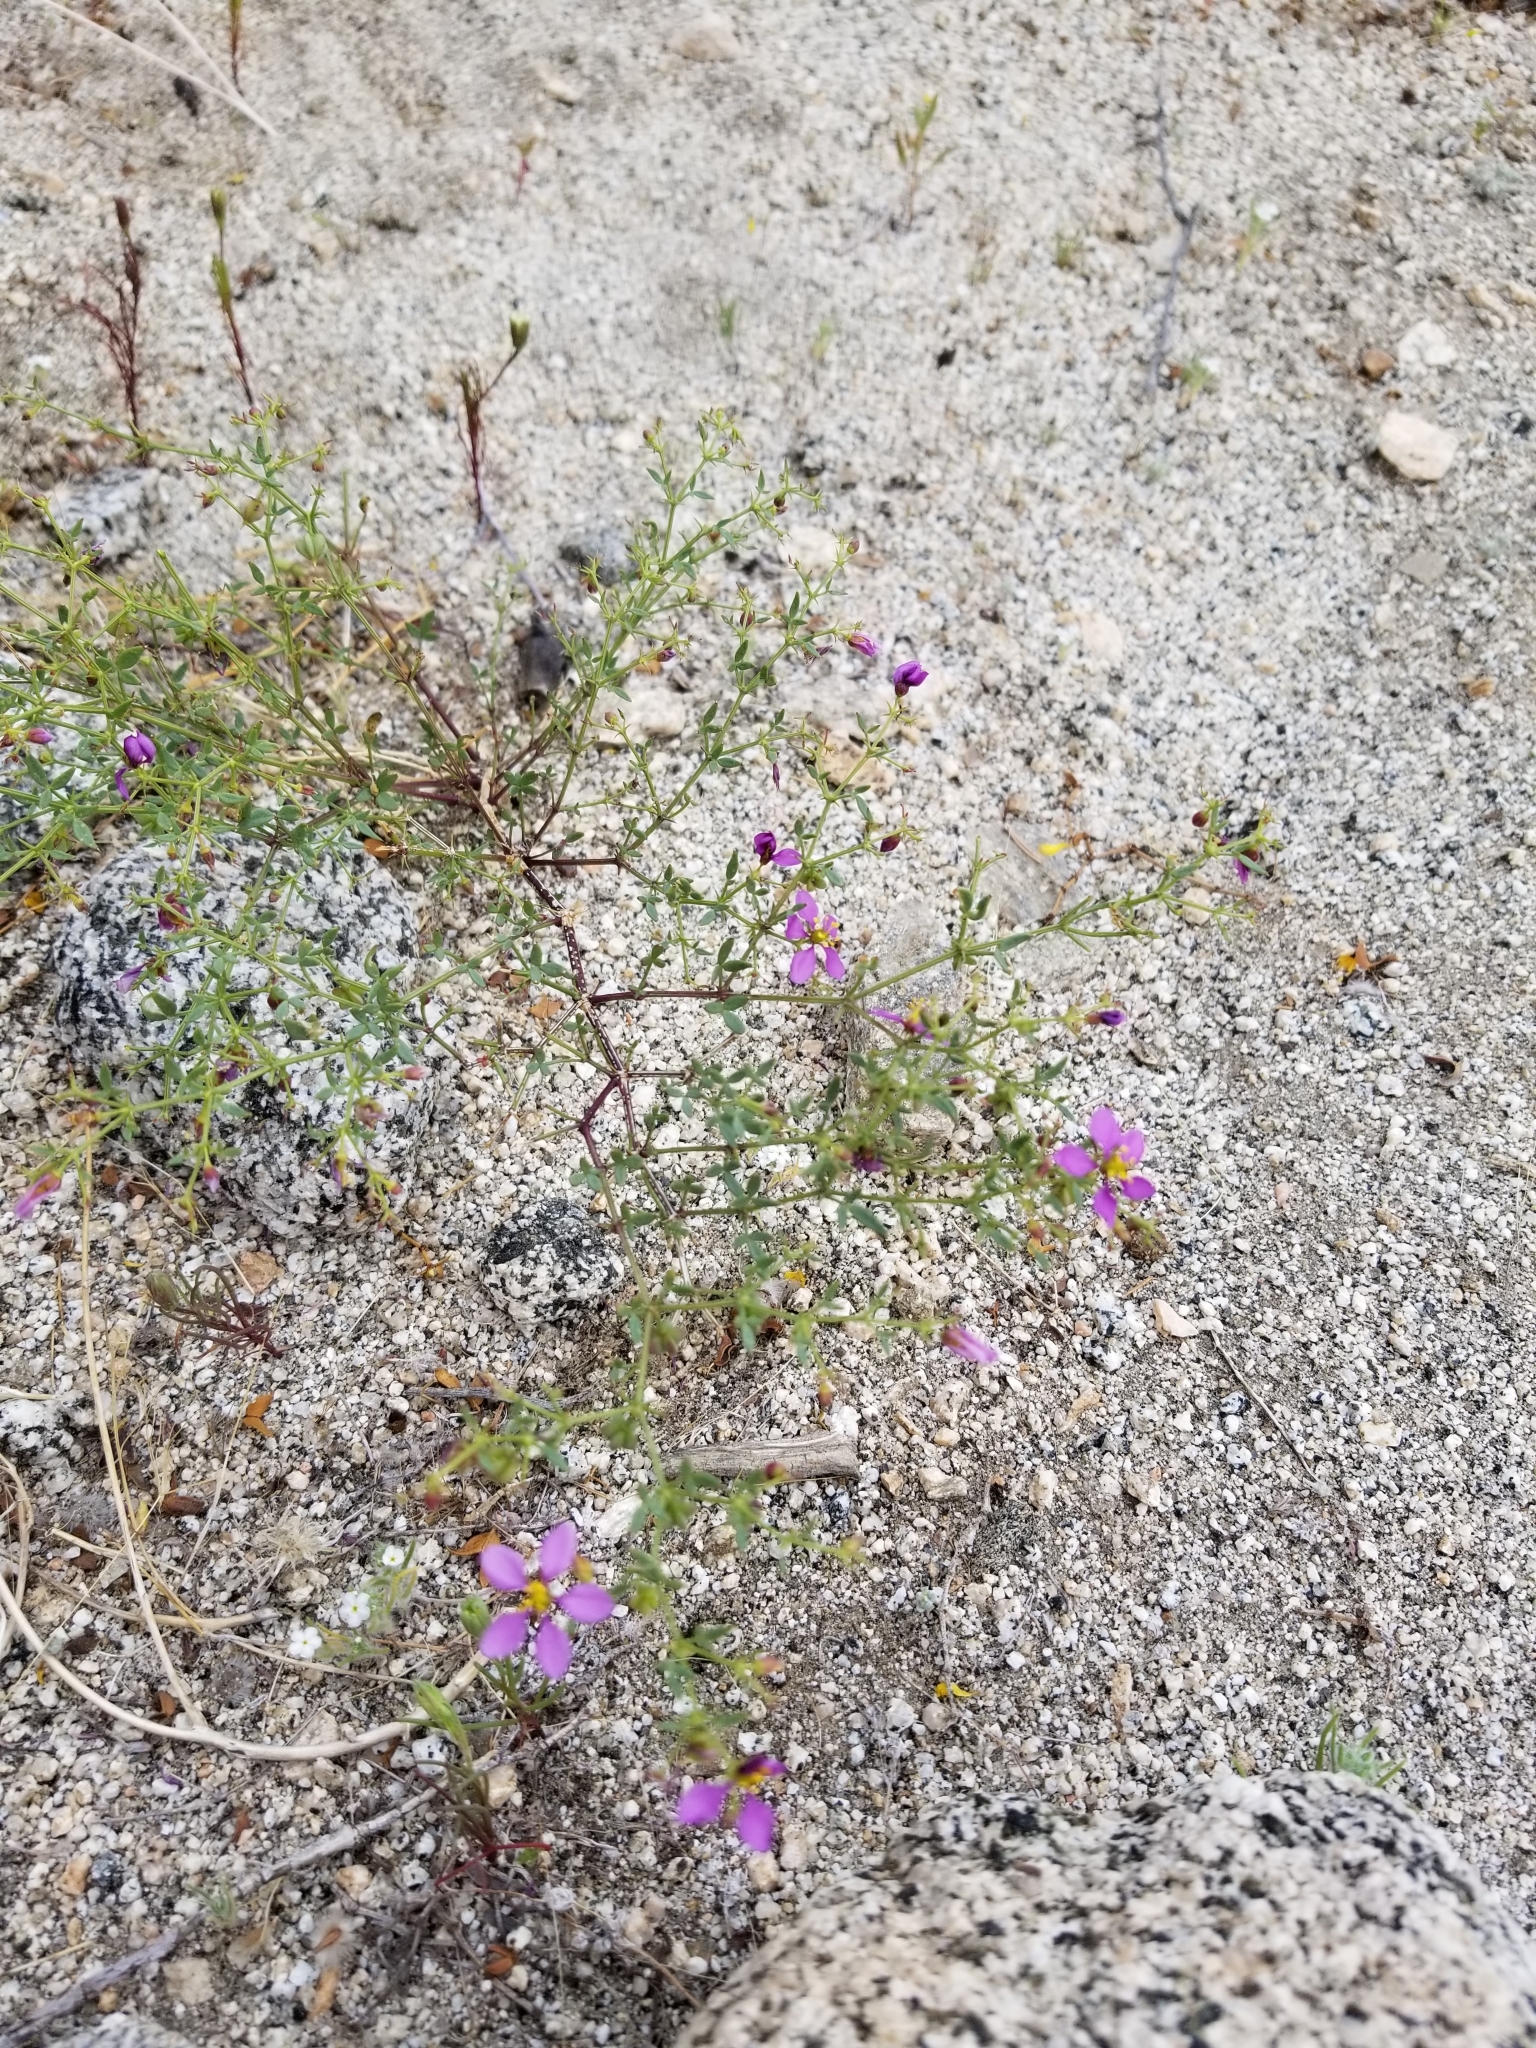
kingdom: Plantae
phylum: Tracheophyta
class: Magnoliopsida
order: Zygophyllales
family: Zygophyllaceae
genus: Fagonia
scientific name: Fagonia laevis
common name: California fagonbush
